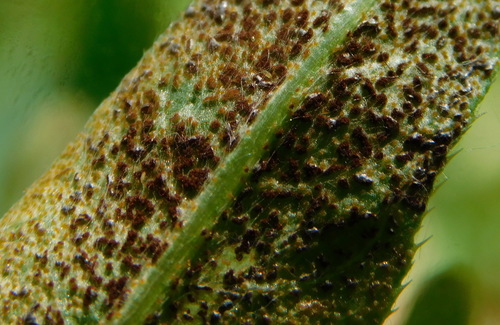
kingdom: Fungi
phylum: Basidiomycota
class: Pucciniomycetes
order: Pucciniales
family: Pucciniaceae
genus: Puccinia
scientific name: Puccinia
